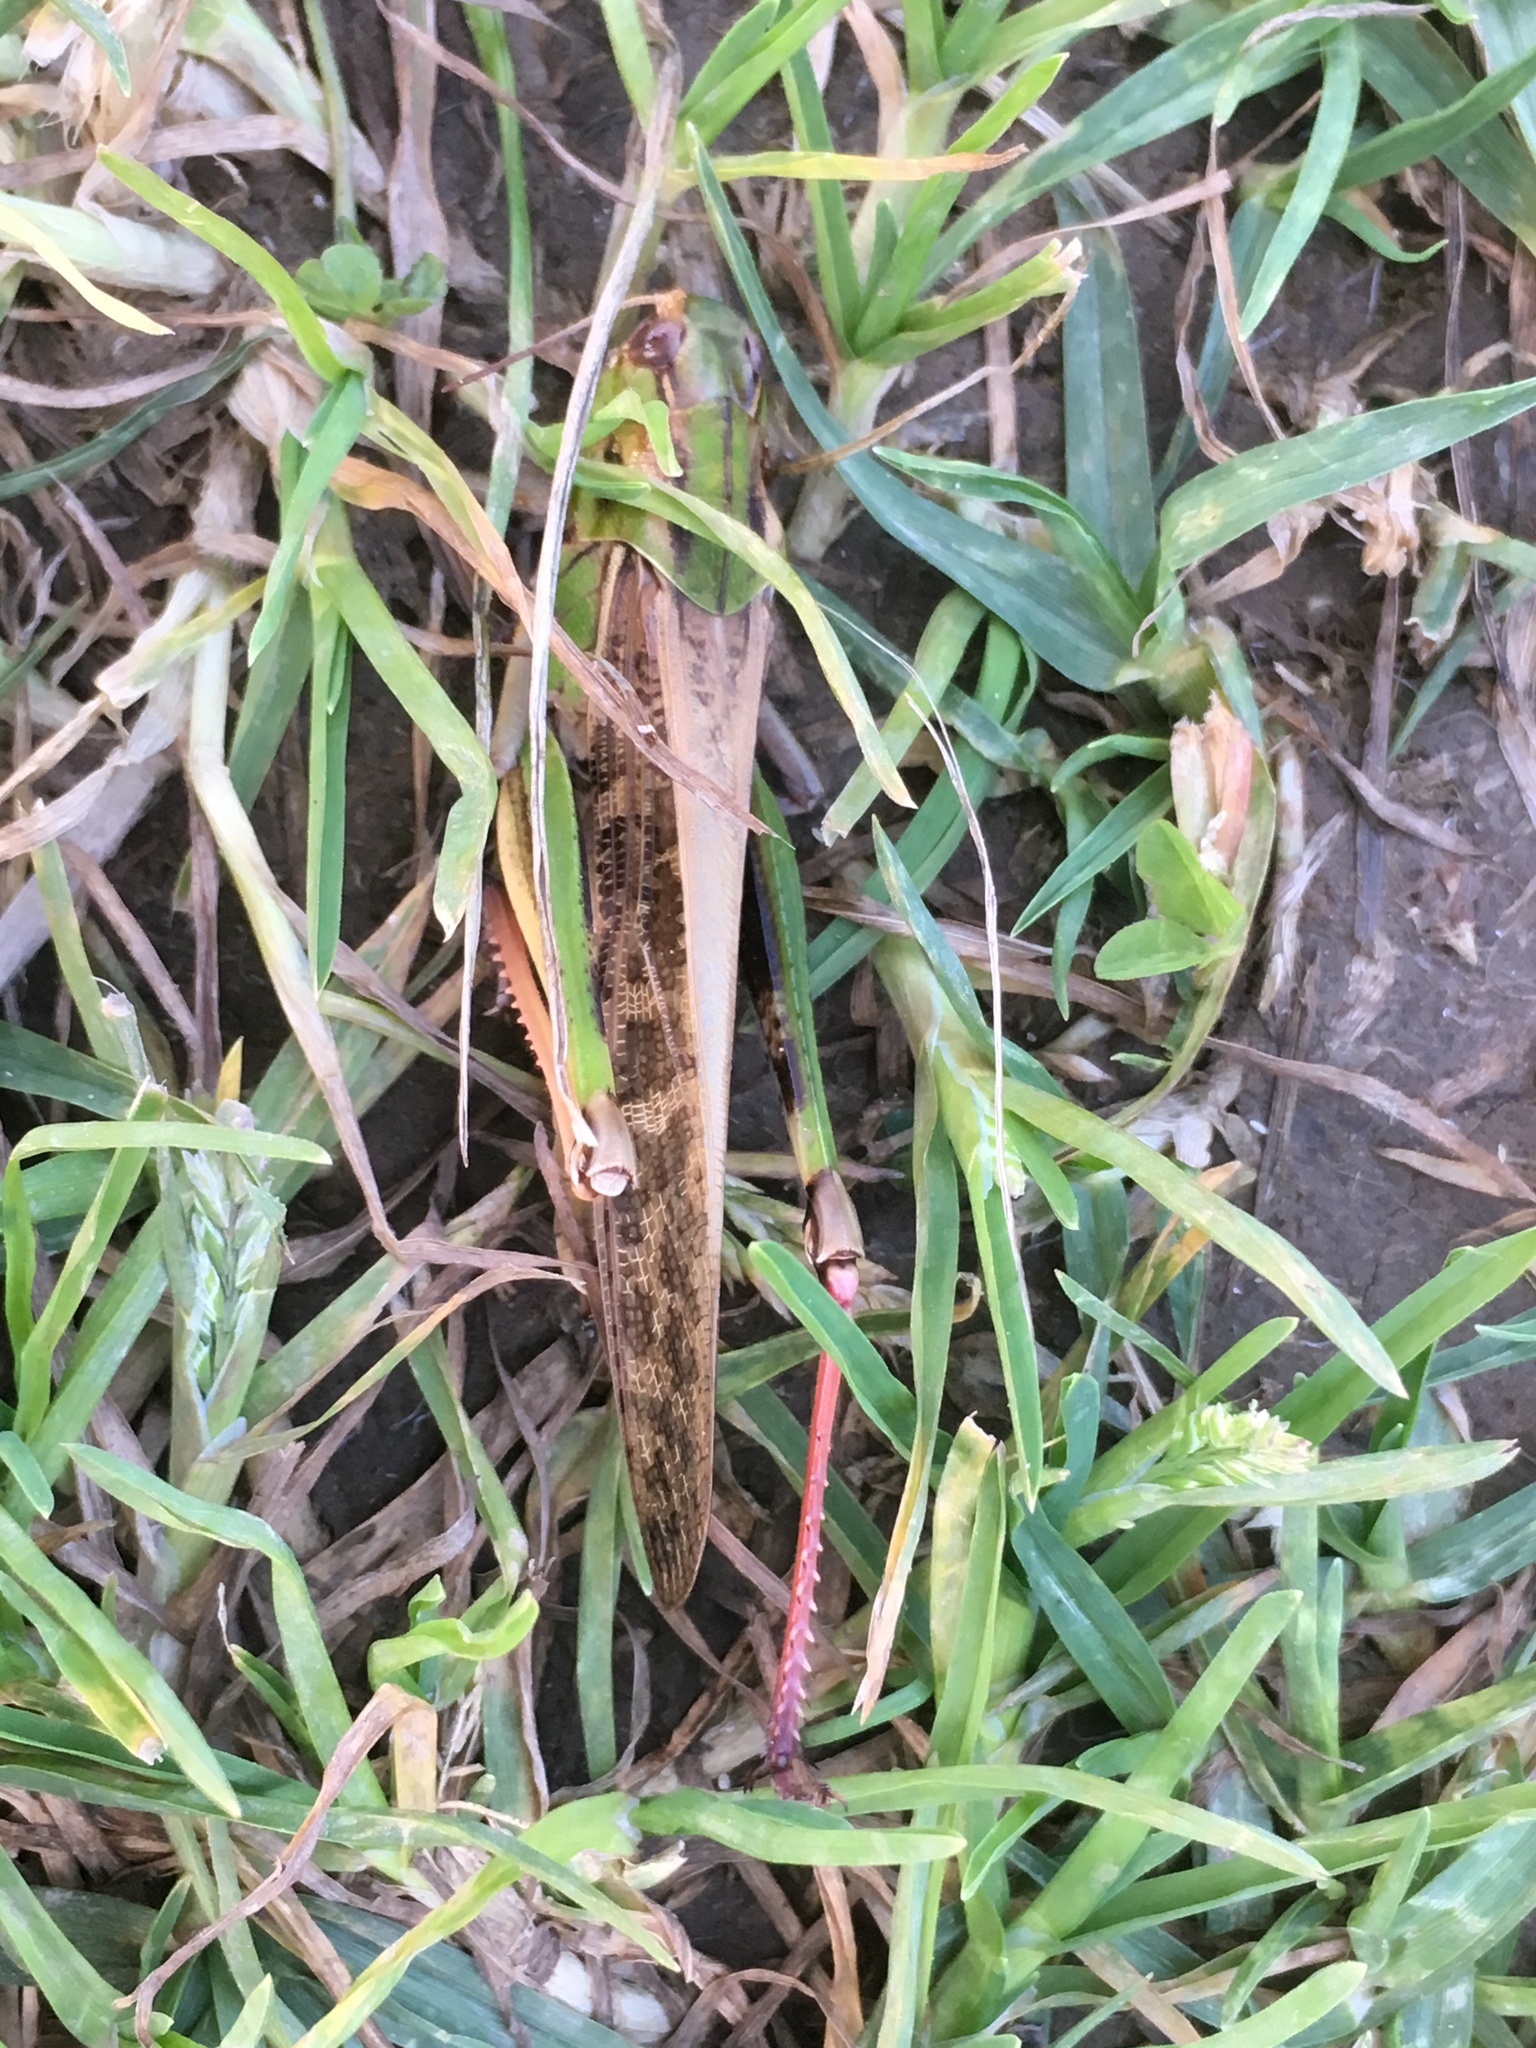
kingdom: Animalia
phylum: Arthropoda
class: Insecta
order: Orthoptera
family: Acrididae
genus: Locusta
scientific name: Locusta migratoria
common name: Migratory locust
